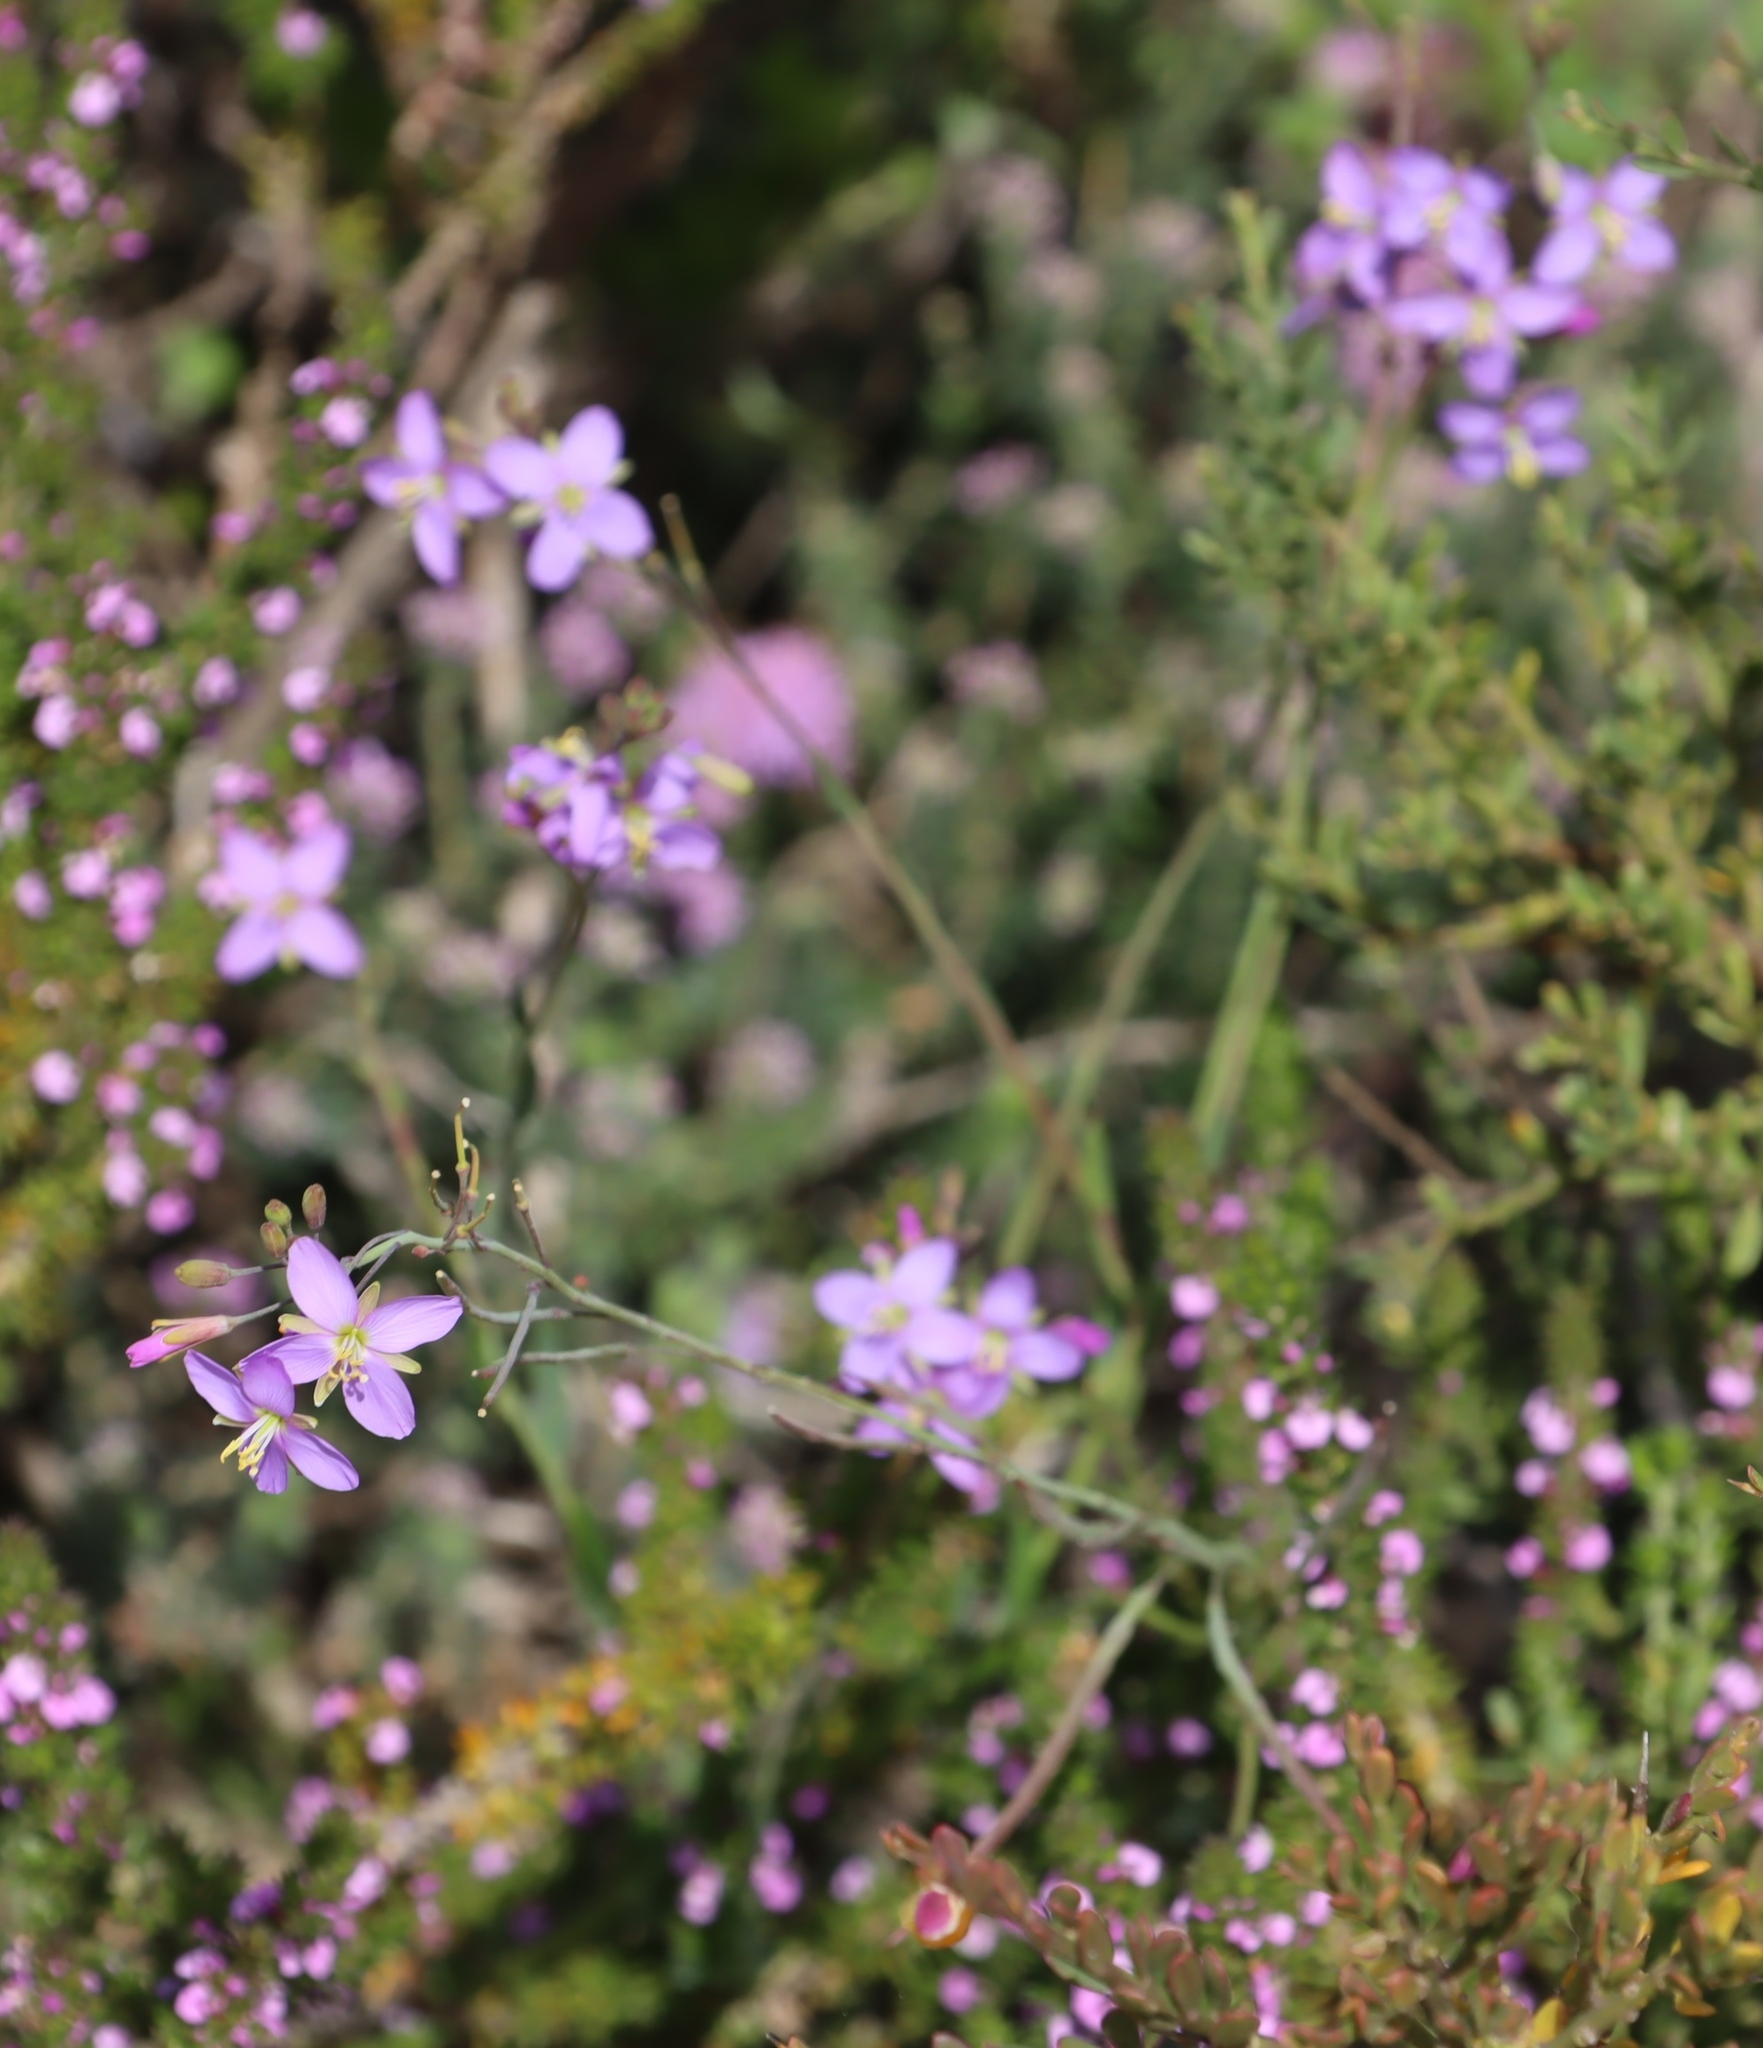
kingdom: Plantae
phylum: Tracheophyta
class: Magnoliopsida
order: Brassicales
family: Brassicaceae
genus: Heliophila
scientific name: Heliophila linearis
